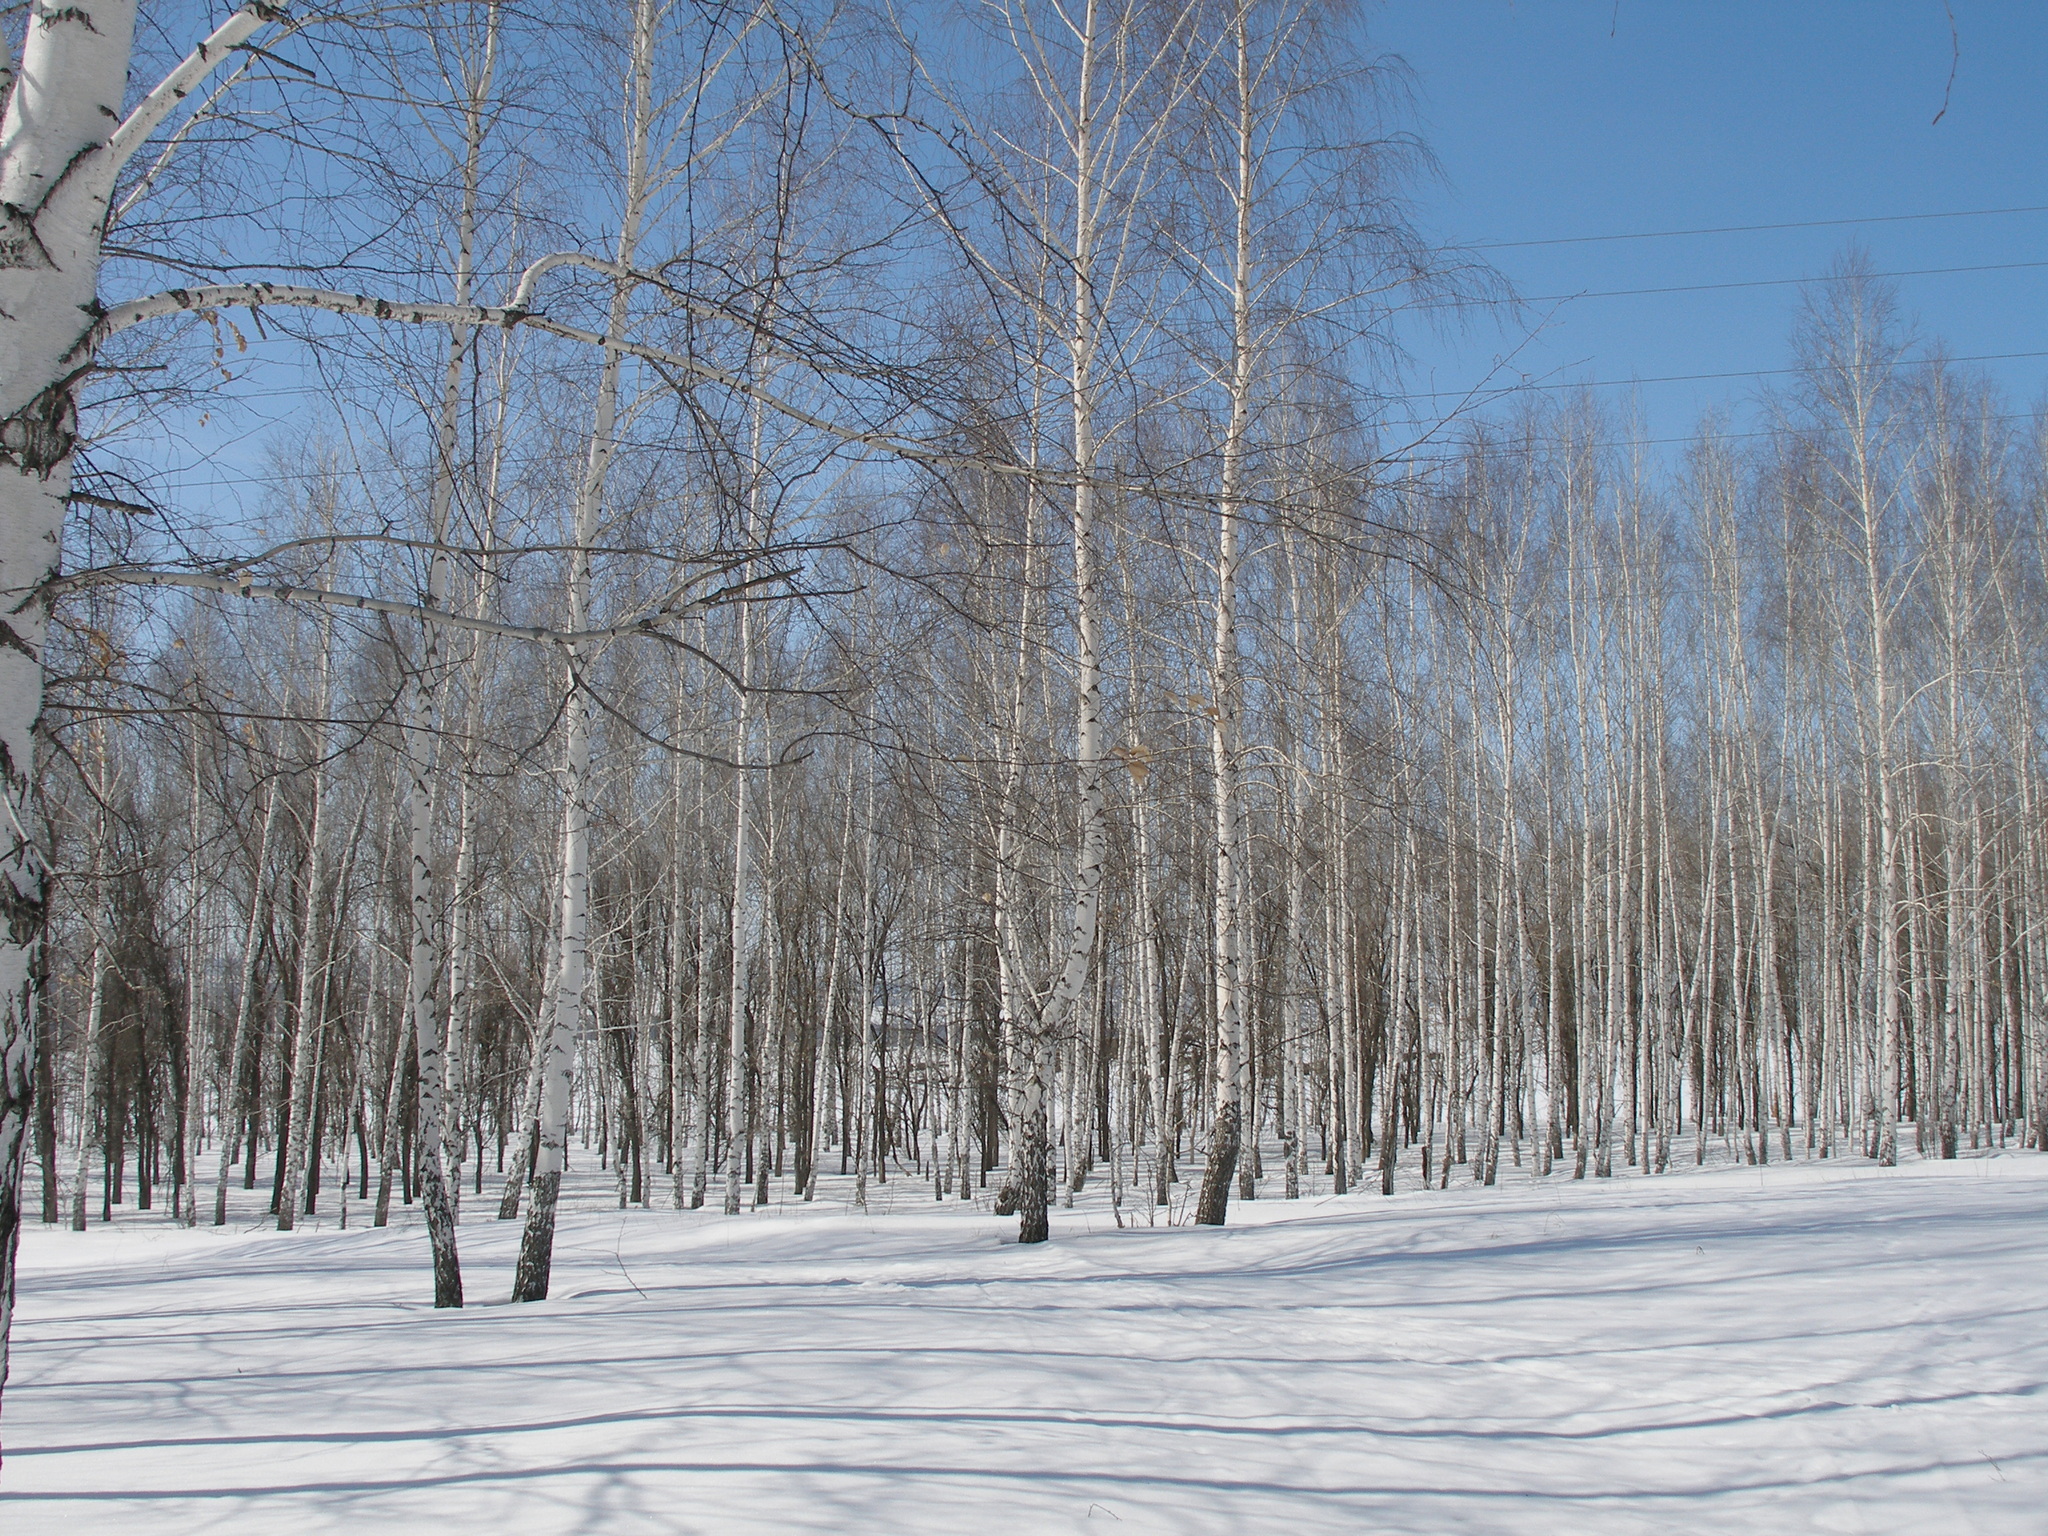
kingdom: Plantae
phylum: Tracheophyta
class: Magnoliopsida
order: Fagales
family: Betulaceae
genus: Betula
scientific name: Betula pendula
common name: Silver birch
